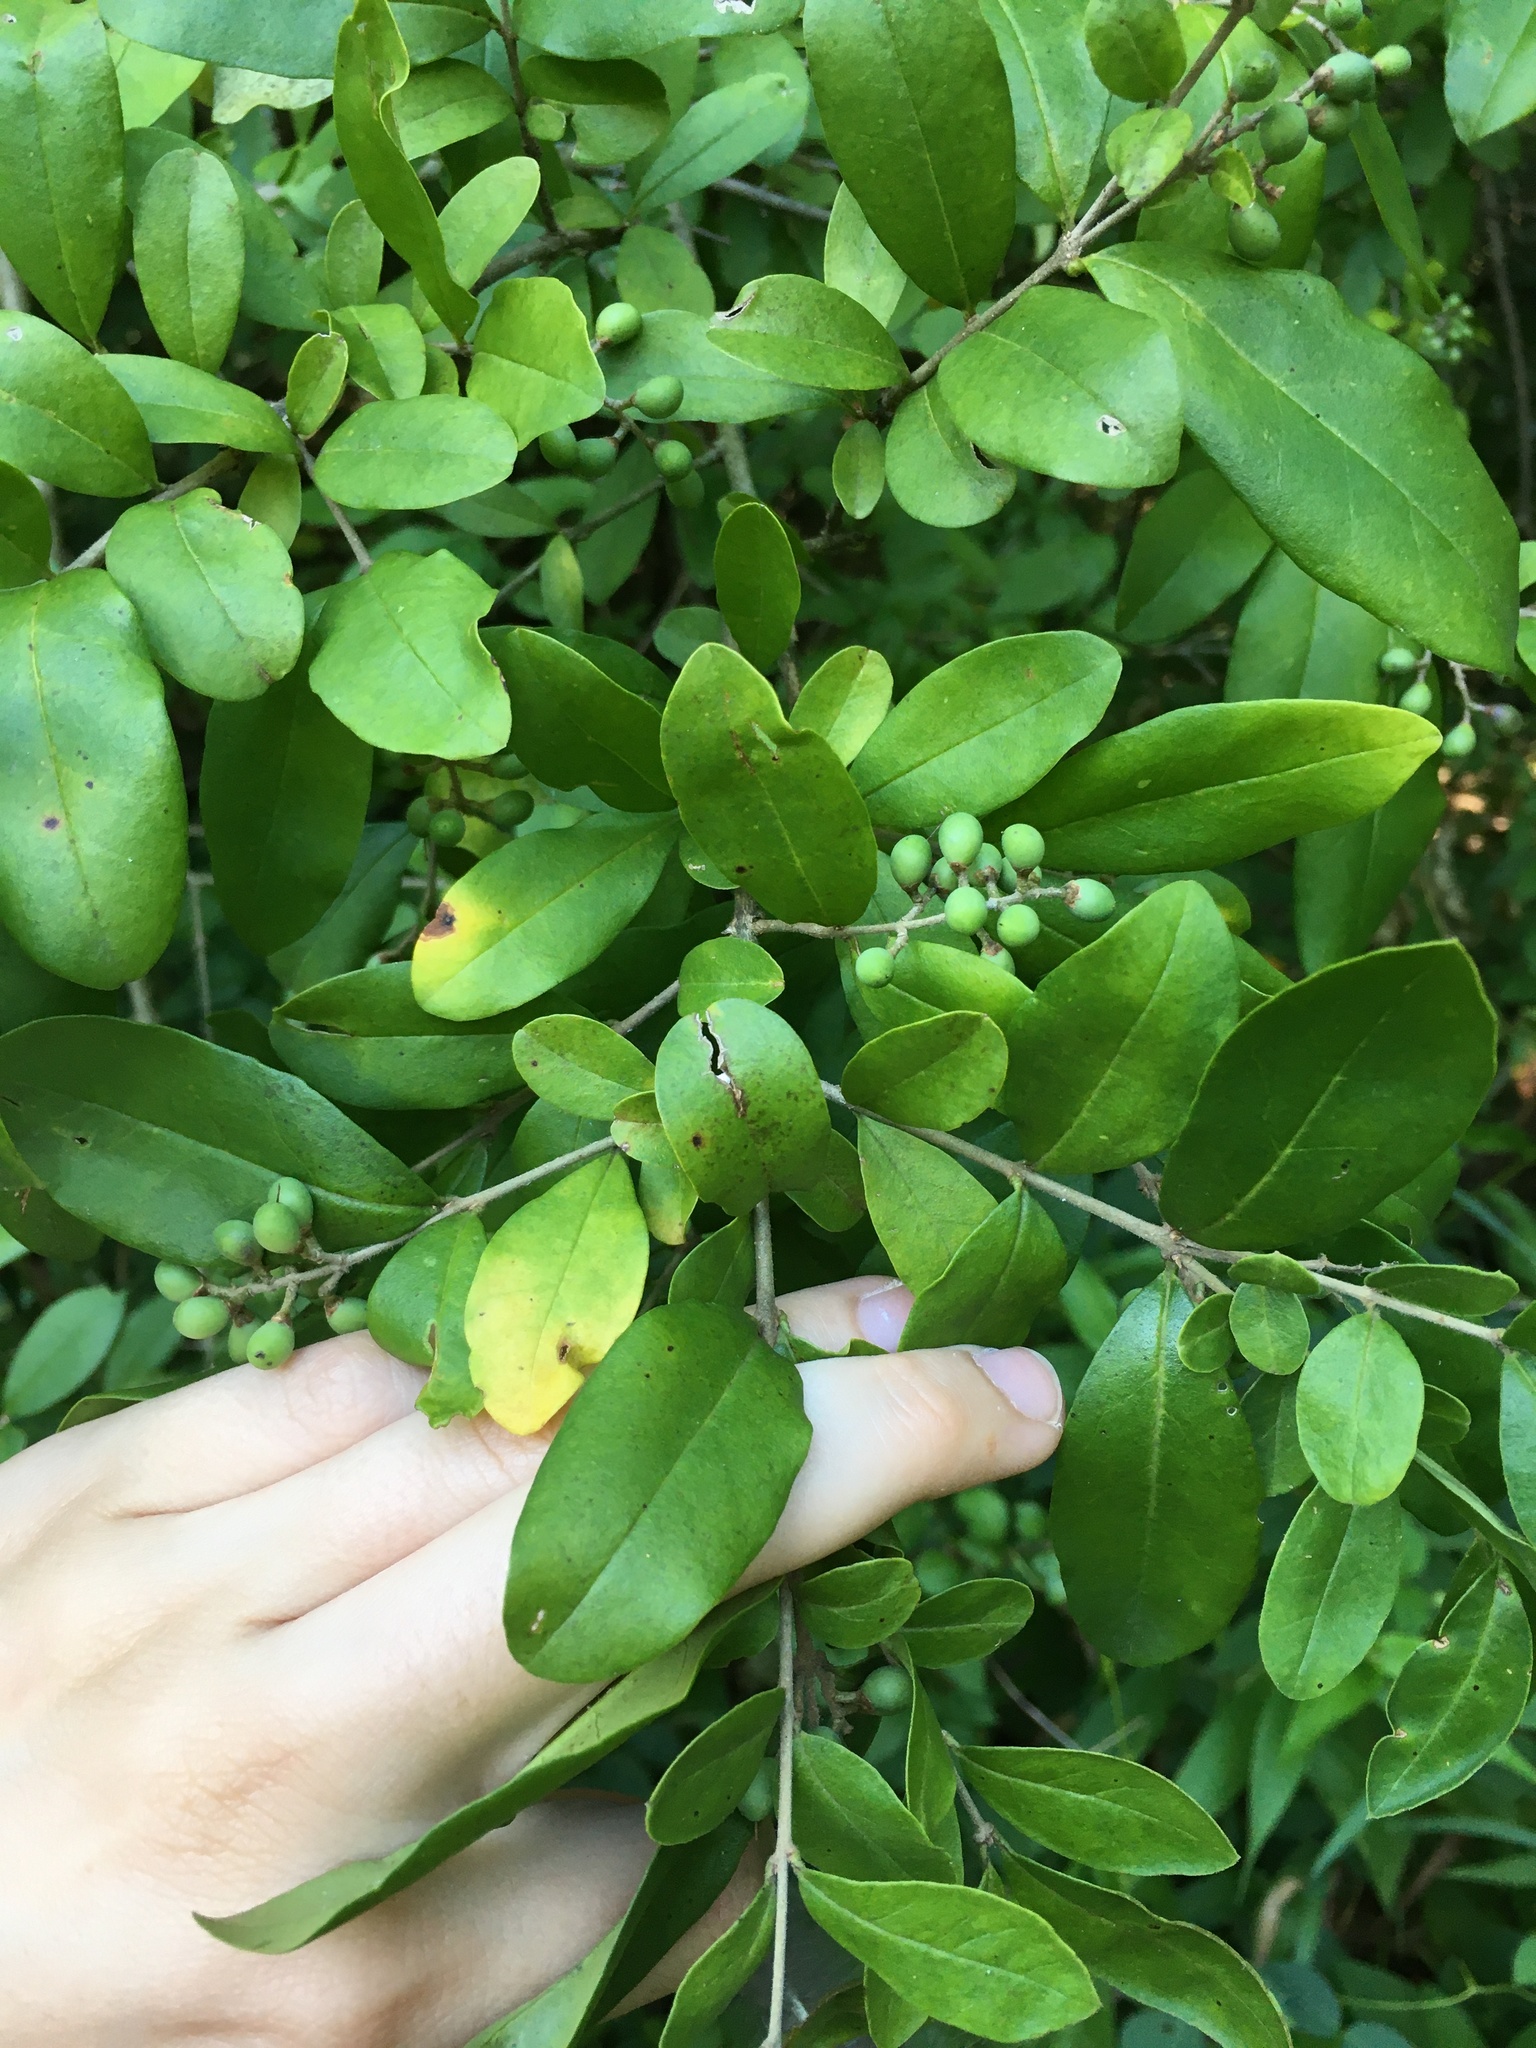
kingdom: Plantae
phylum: Tracheophyta
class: Magnoliopsida
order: Lamiales
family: Oleaceae
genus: Ligustrum
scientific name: Ligustrum obtusifolium
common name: Border privet
